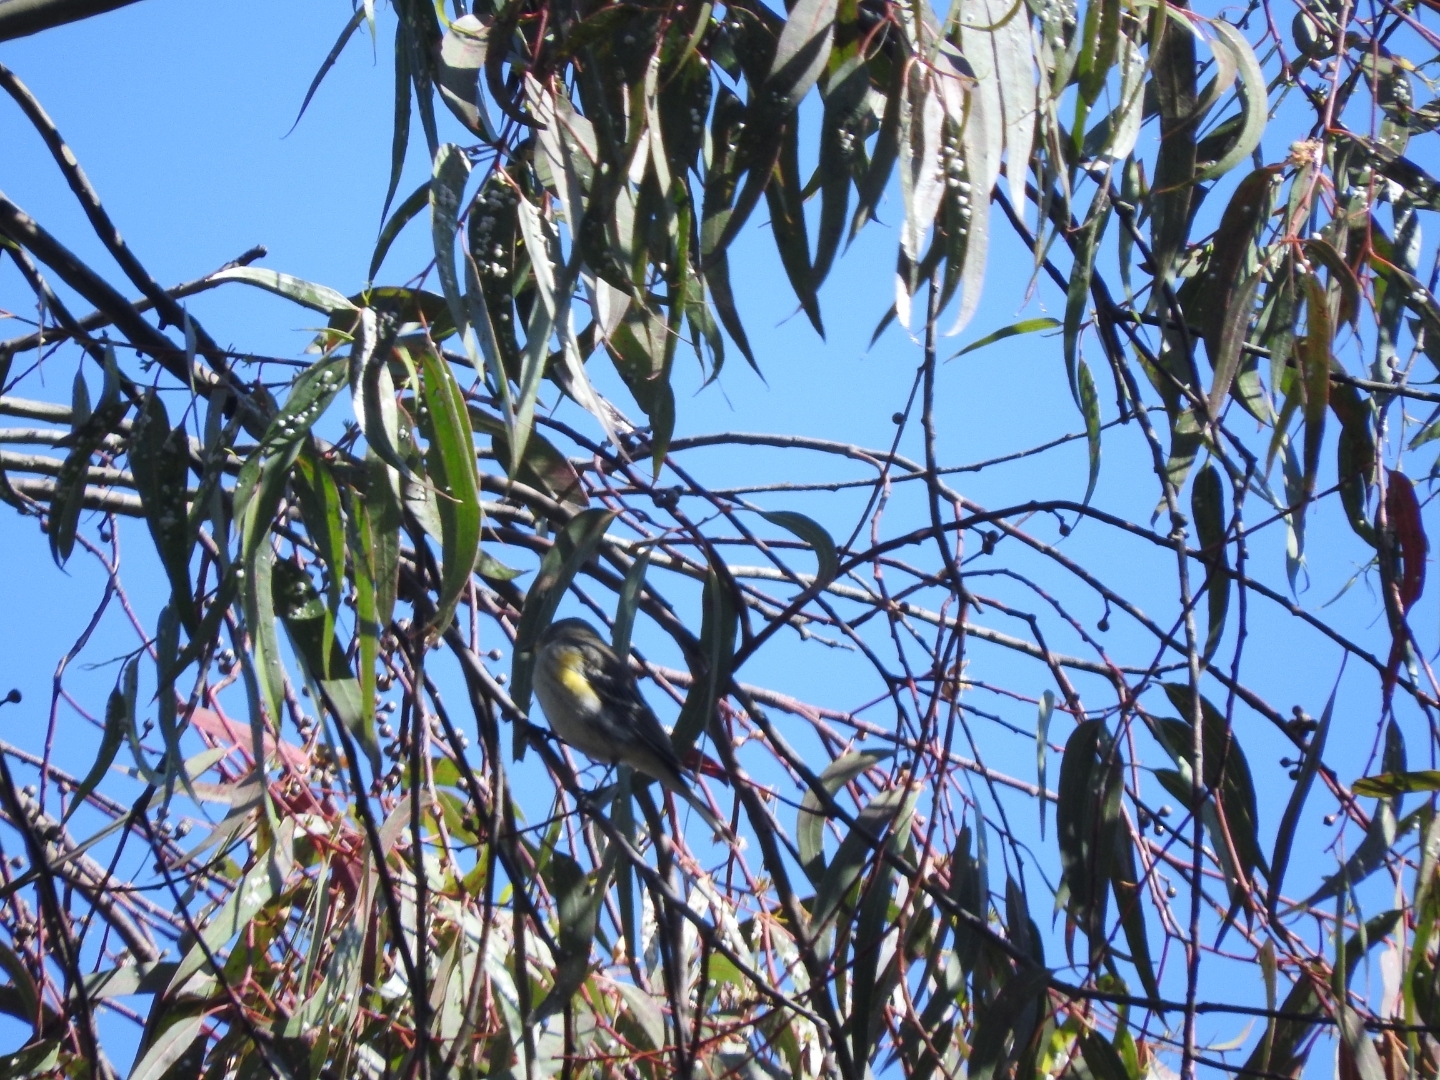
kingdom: Animalia
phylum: Chordata
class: Aves
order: Passeriformes
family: Parulidae
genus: Setophaga
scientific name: Setophaga coronata
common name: Myrtle warbler
